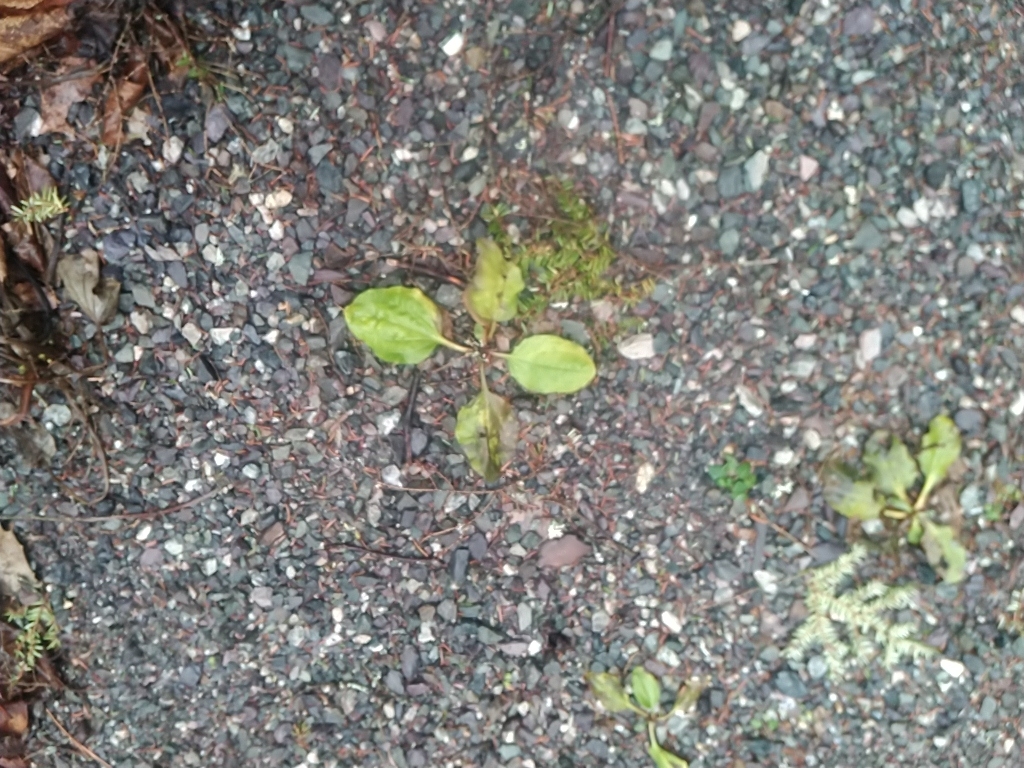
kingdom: Plantae
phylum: Tracheophyta
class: Magnoliopsida
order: Lamiales
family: Plantaginaceae
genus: Plantago
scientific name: Plantago major
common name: Common plantain
